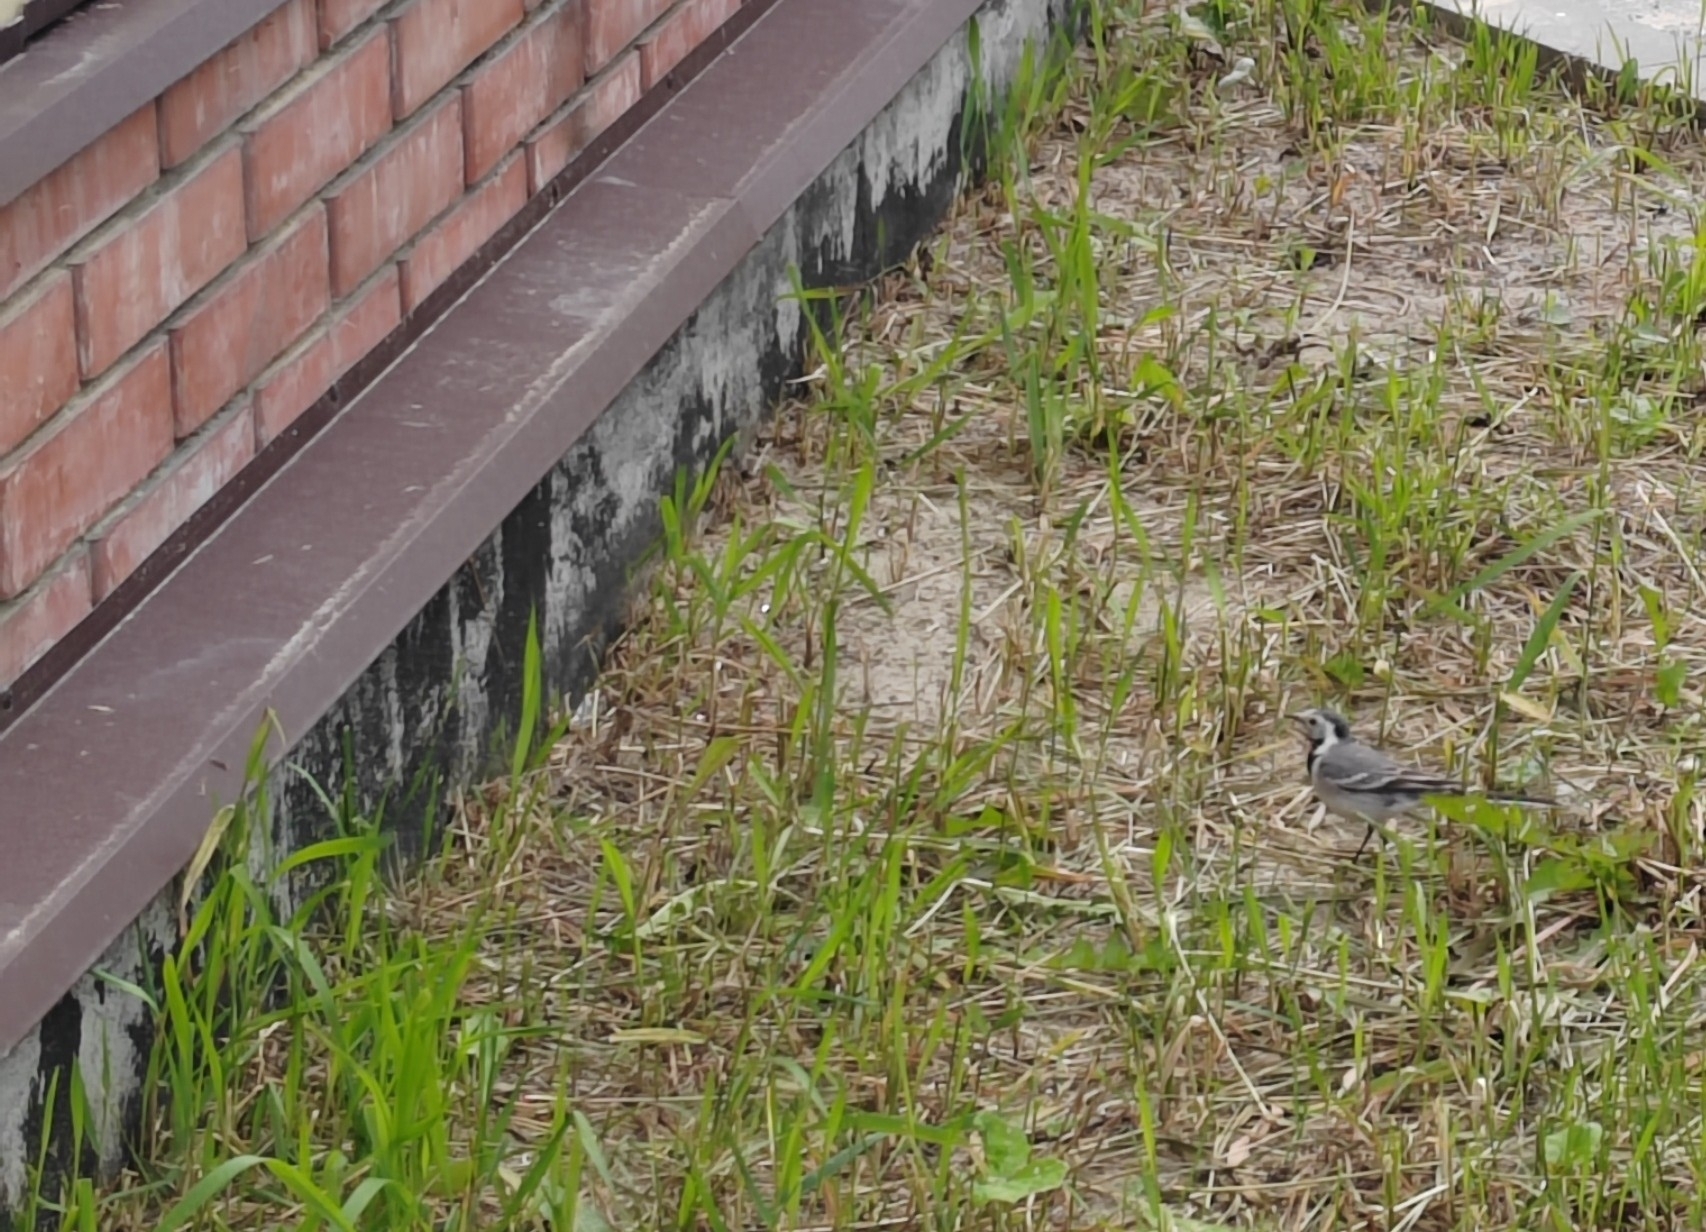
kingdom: Animalia
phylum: Chordata
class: Aves
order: Passeriformes
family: Motacillidae
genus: Motacilla
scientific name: Motacilla alba
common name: White wagtail
